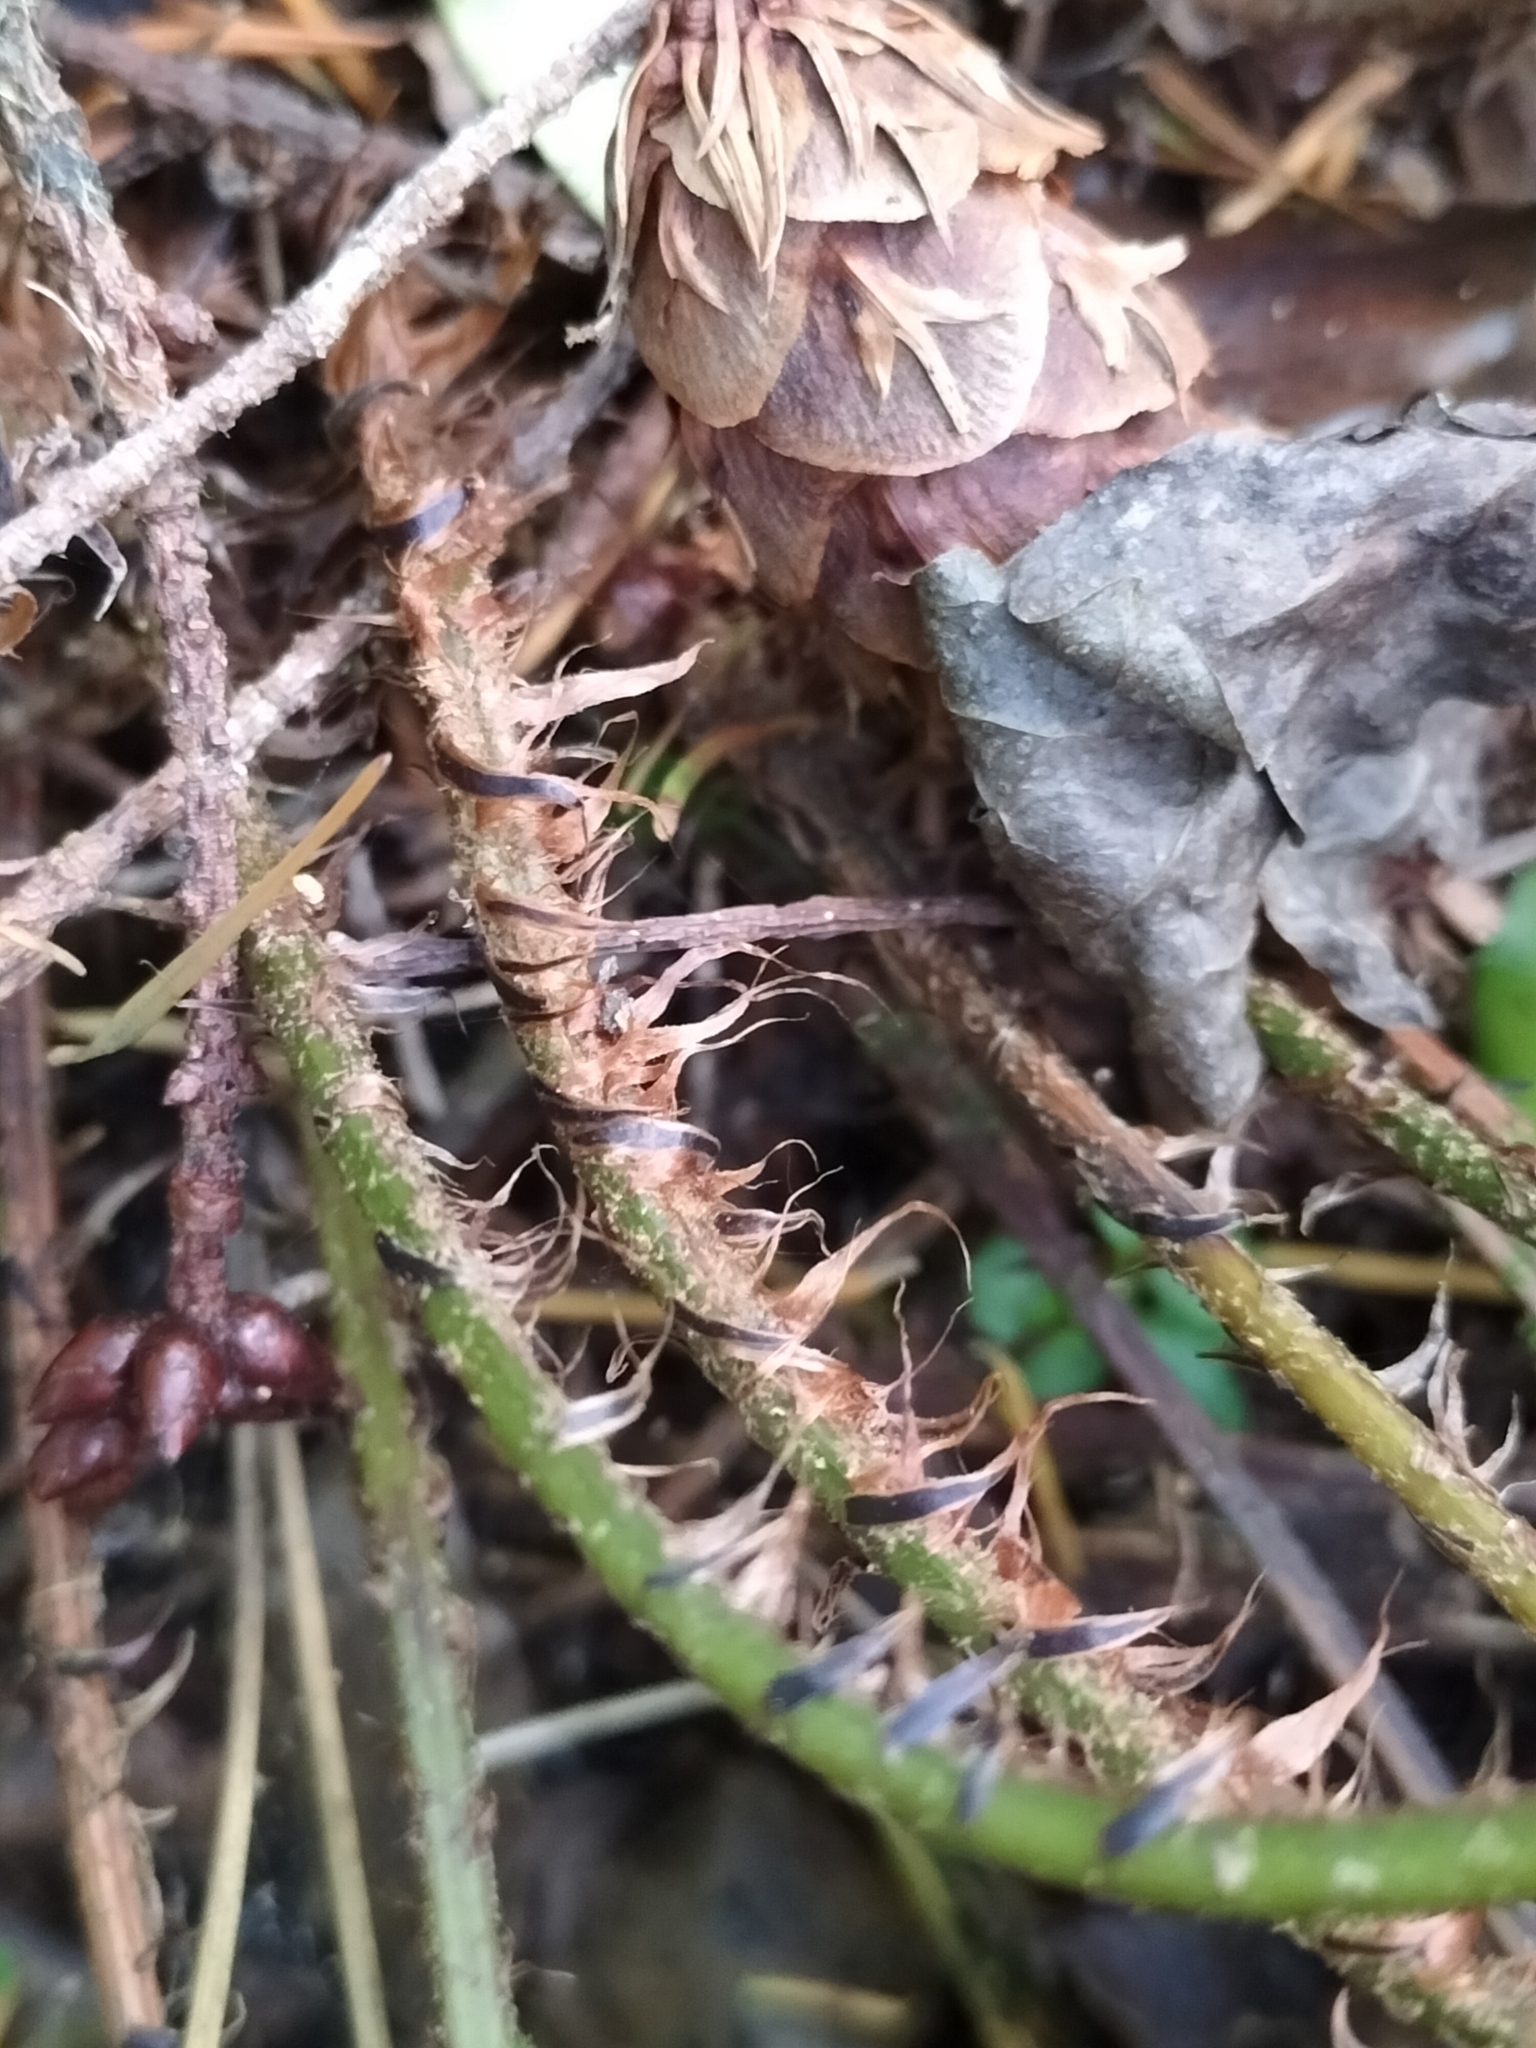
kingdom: Plantae
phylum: Tracheophyta
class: Polypodiopsida
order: Polypodiales
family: Dryopteridaceae
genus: Polystichum
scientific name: Polystichum oculatum
